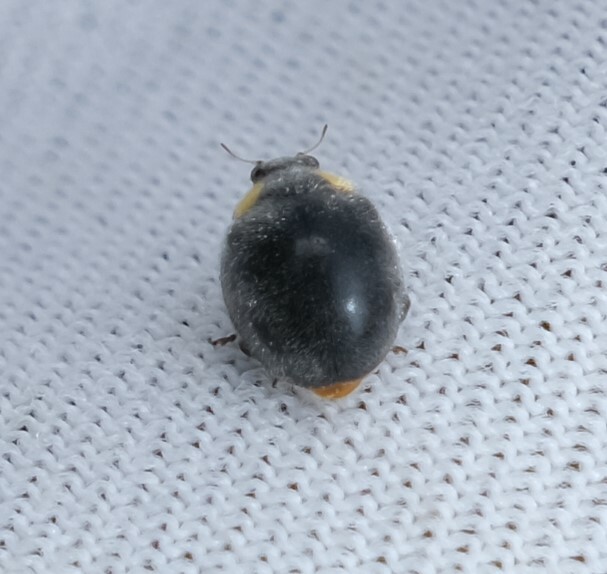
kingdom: Animalia
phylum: Arthropoda
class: Insecta
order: Coleoptera
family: Coccinellidae
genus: Scymnodes
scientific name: Scymnodes lividigaster
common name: Yellowshouldered lady beetle
